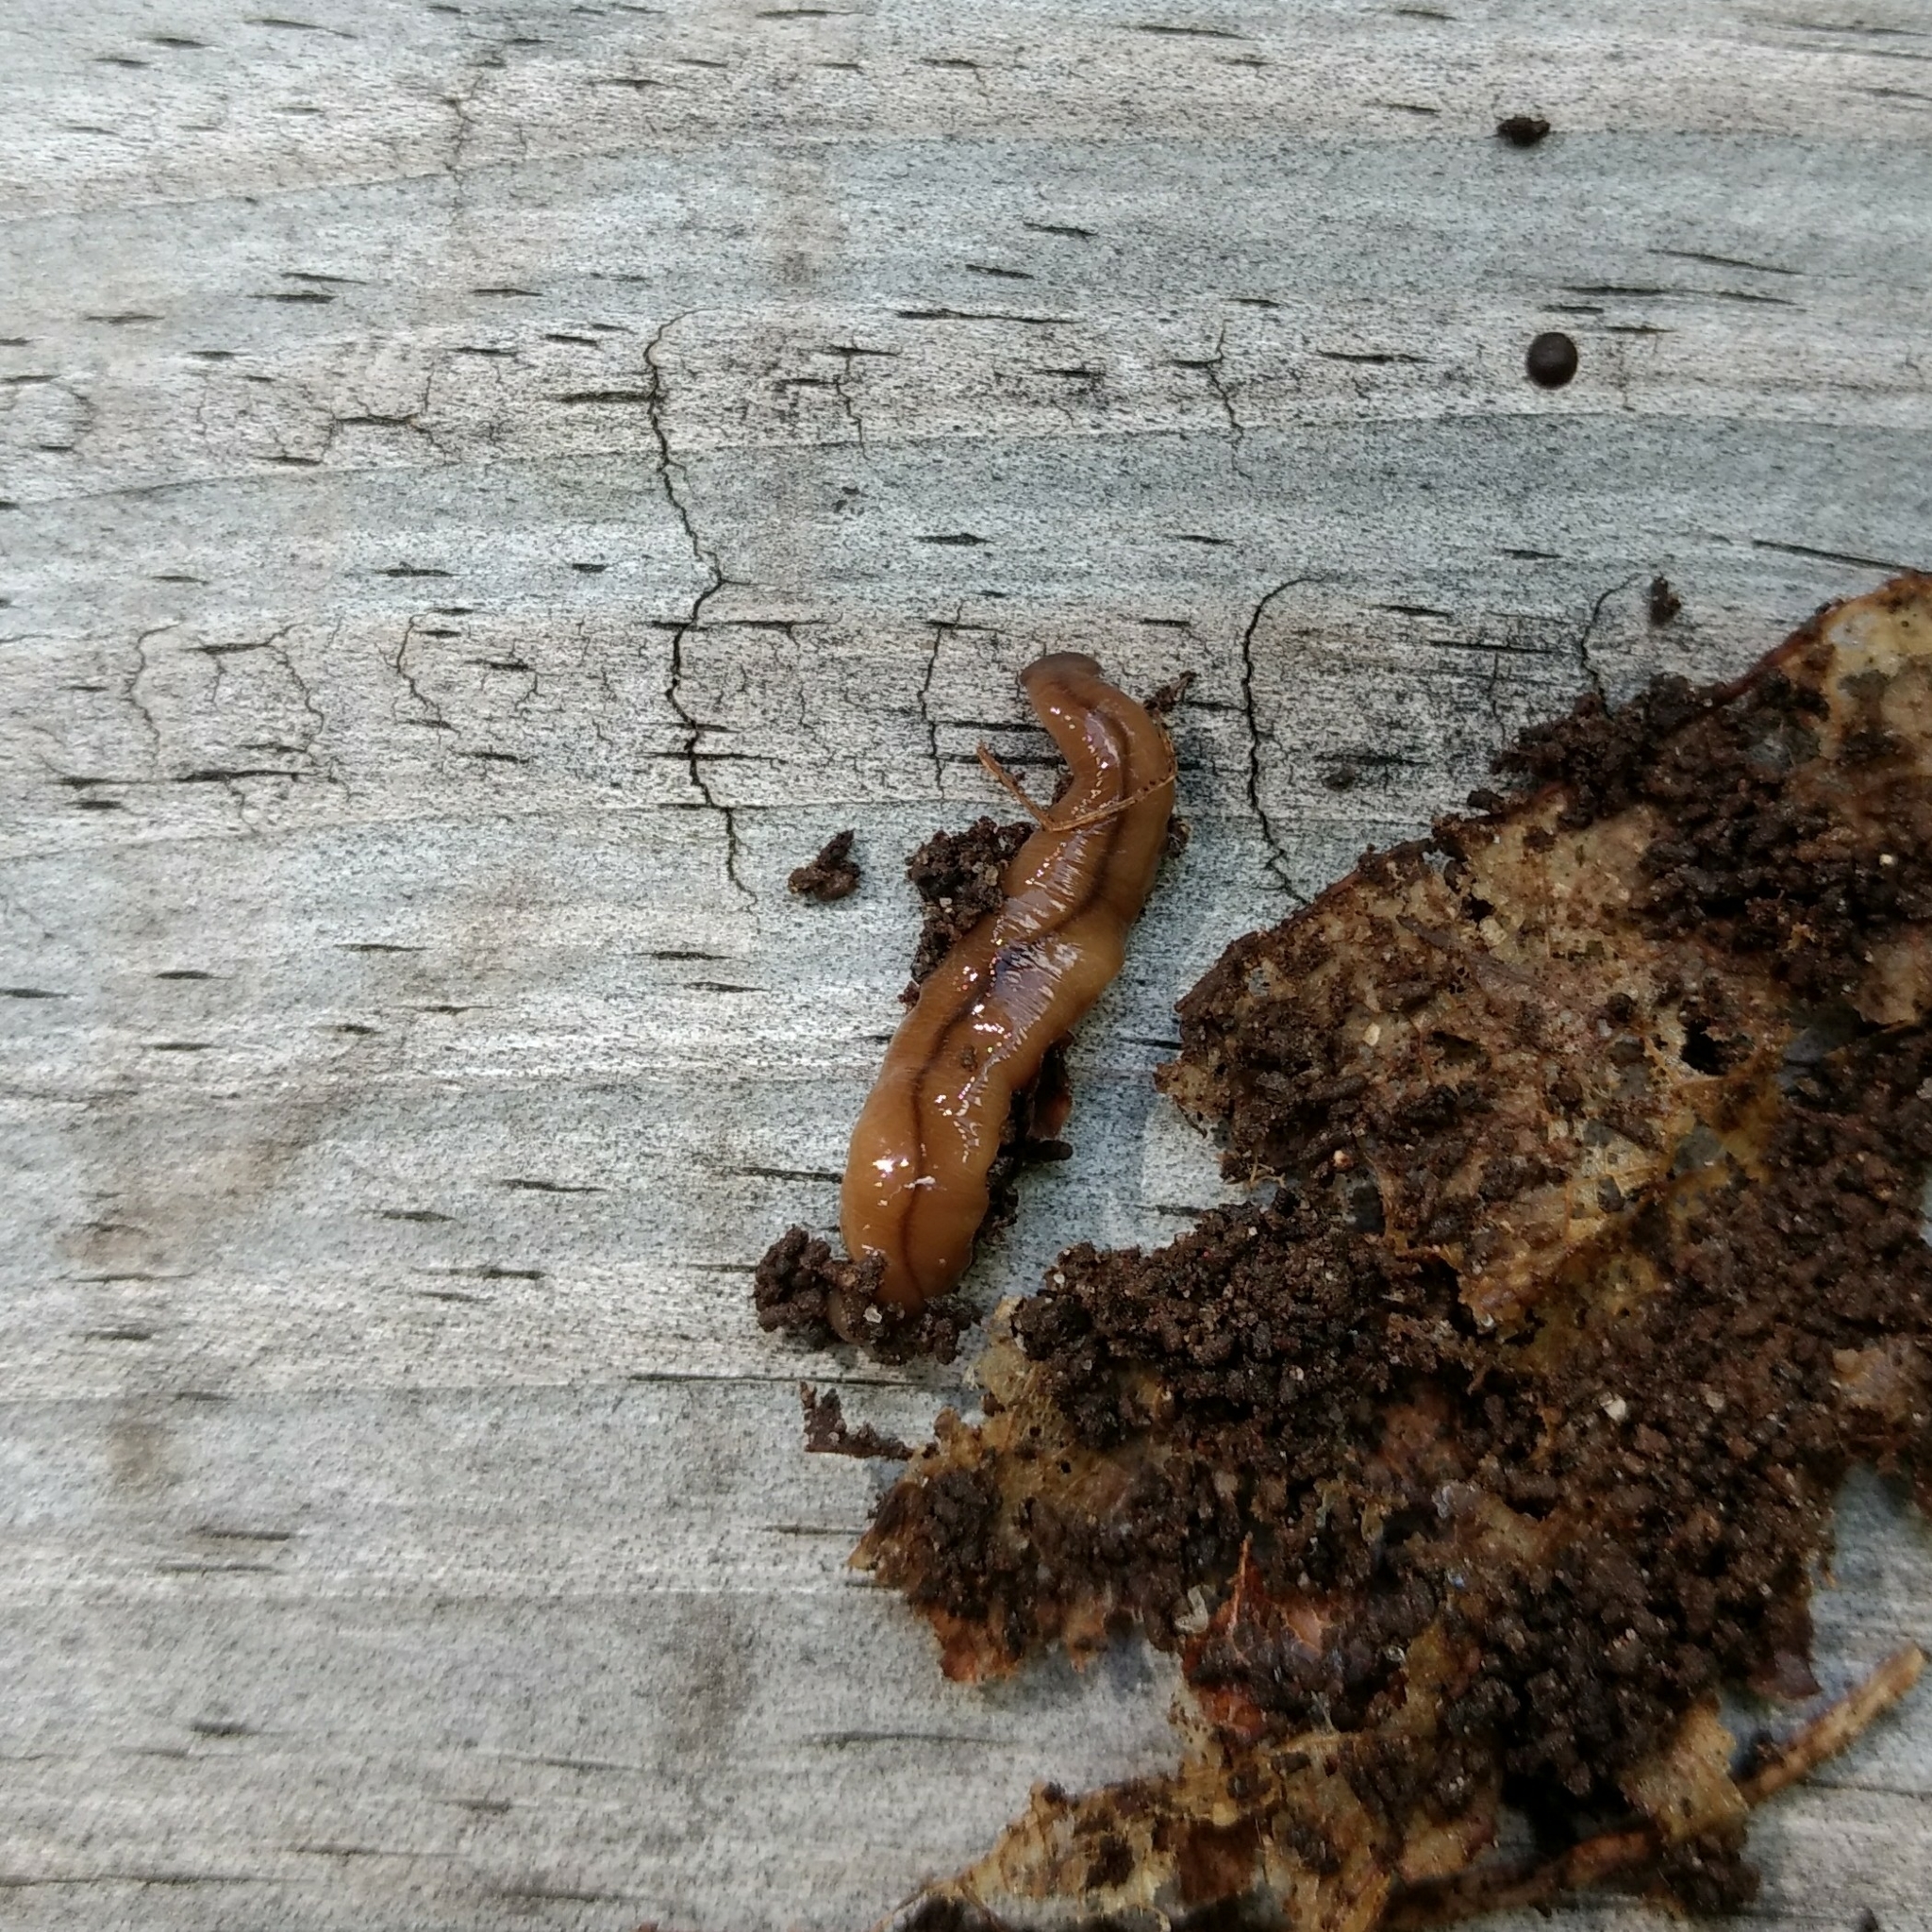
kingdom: Animalia
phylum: Platyhelminthes
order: Tricladida
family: Geoplanidae
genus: Bipalium
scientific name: Bipalium adventitium
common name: Land planarian
